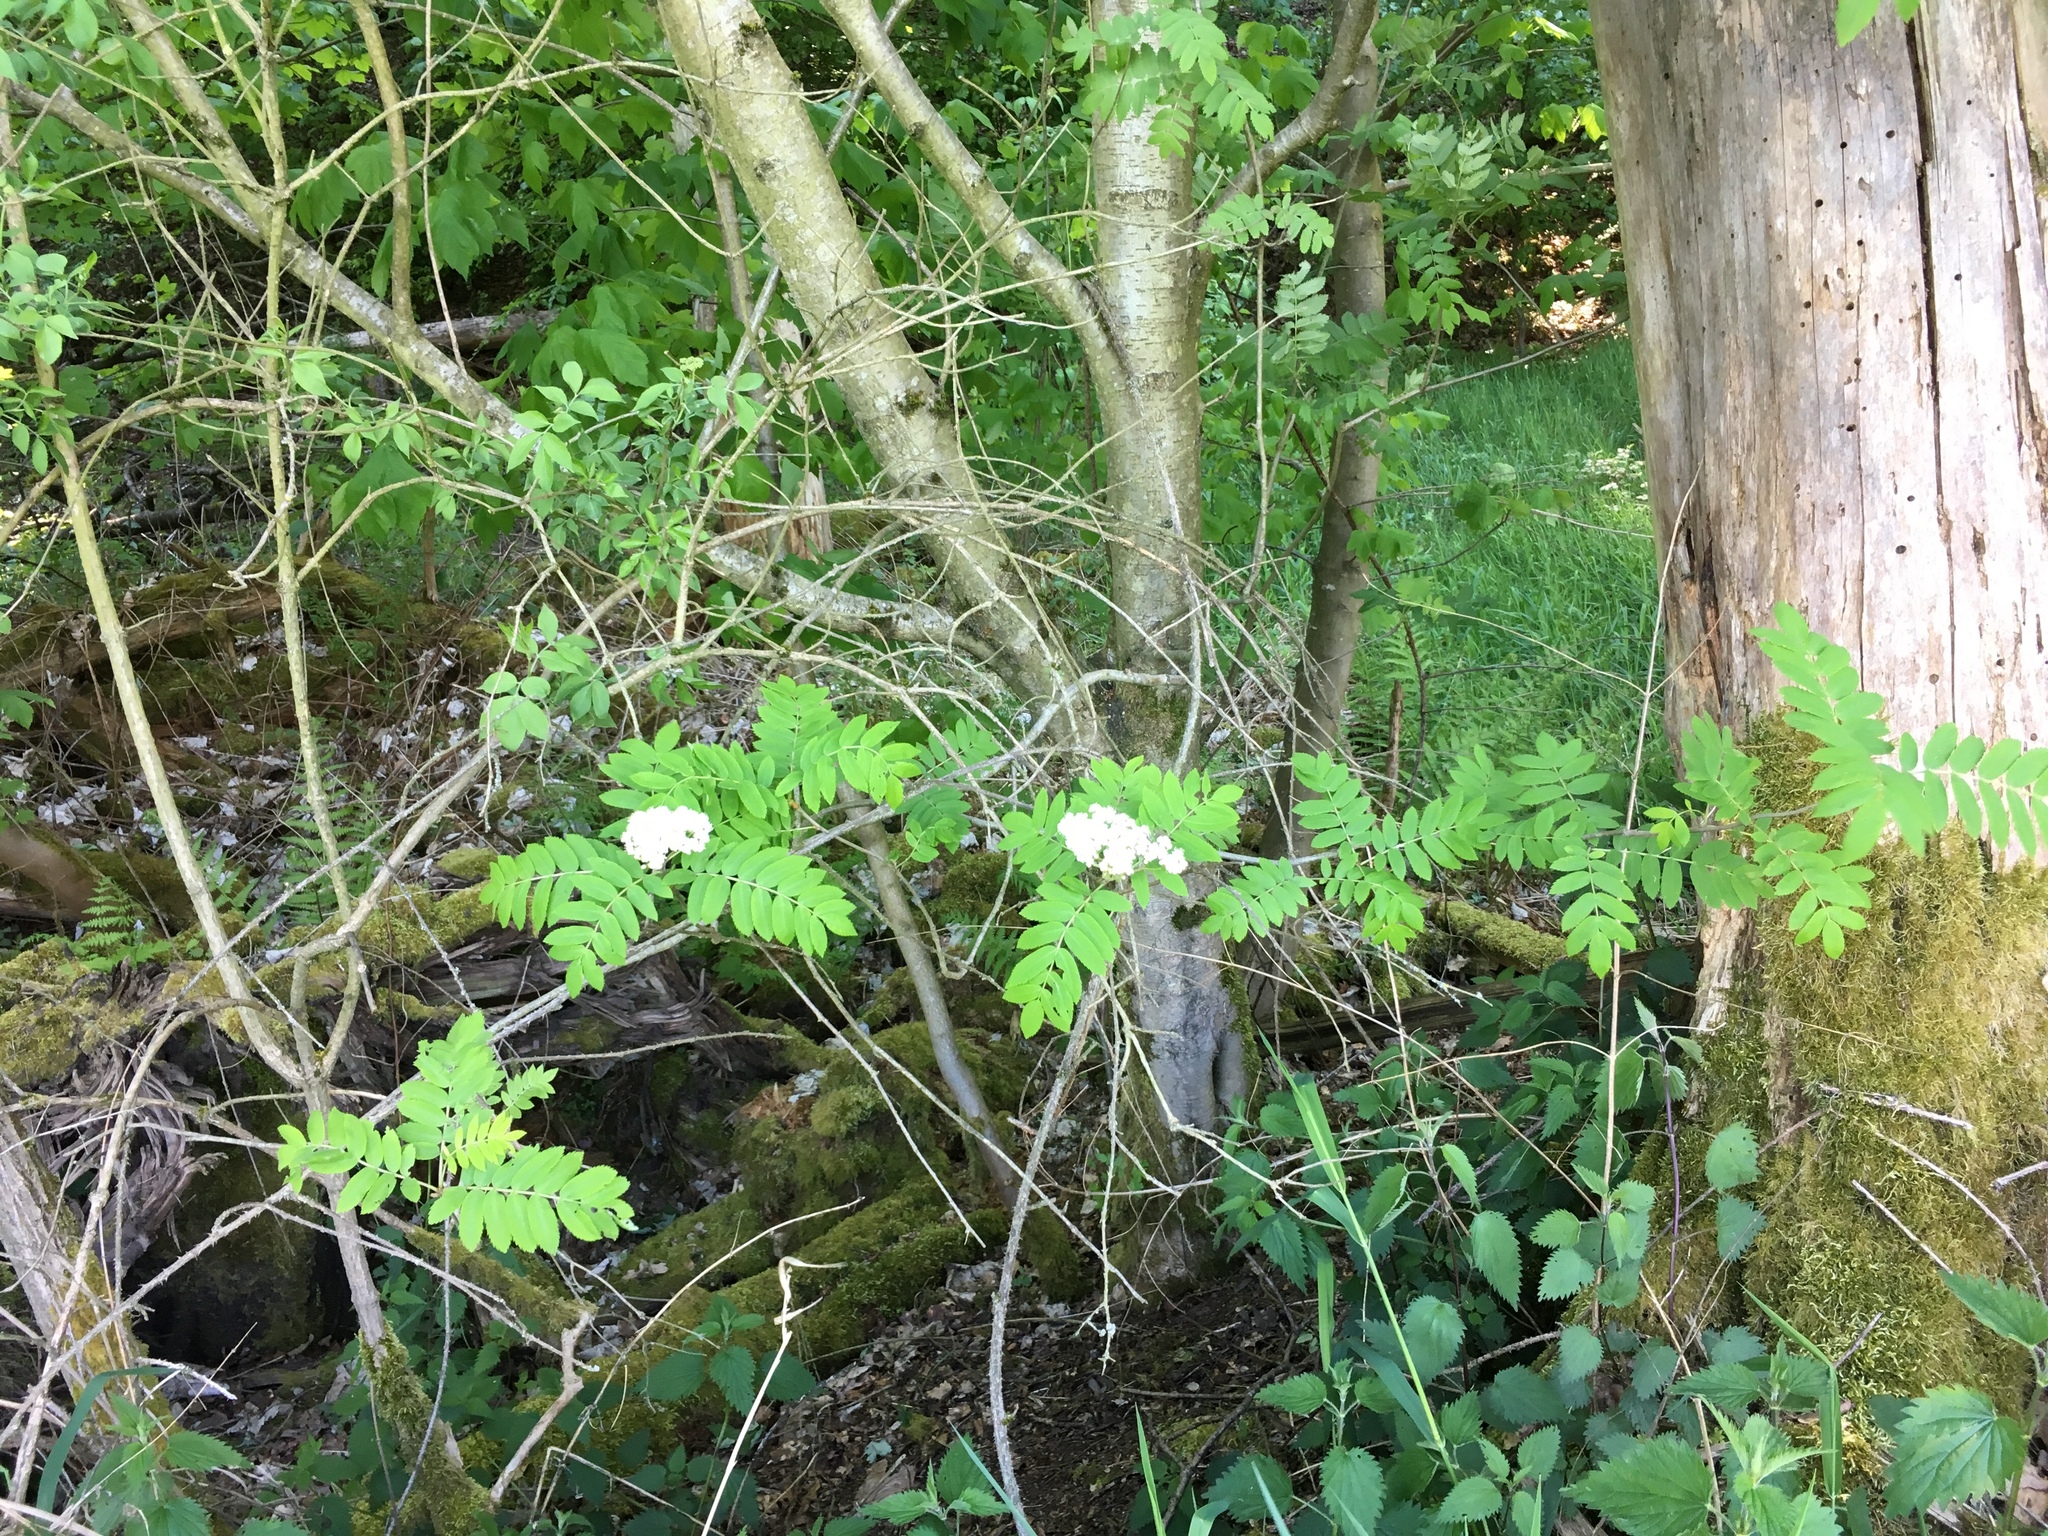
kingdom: Plantae
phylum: Tracheophyta
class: Magnoliopsida
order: Rosales
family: Rosaceae
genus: Sorbus
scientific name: Sorbus aucuparia
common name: Rowan
